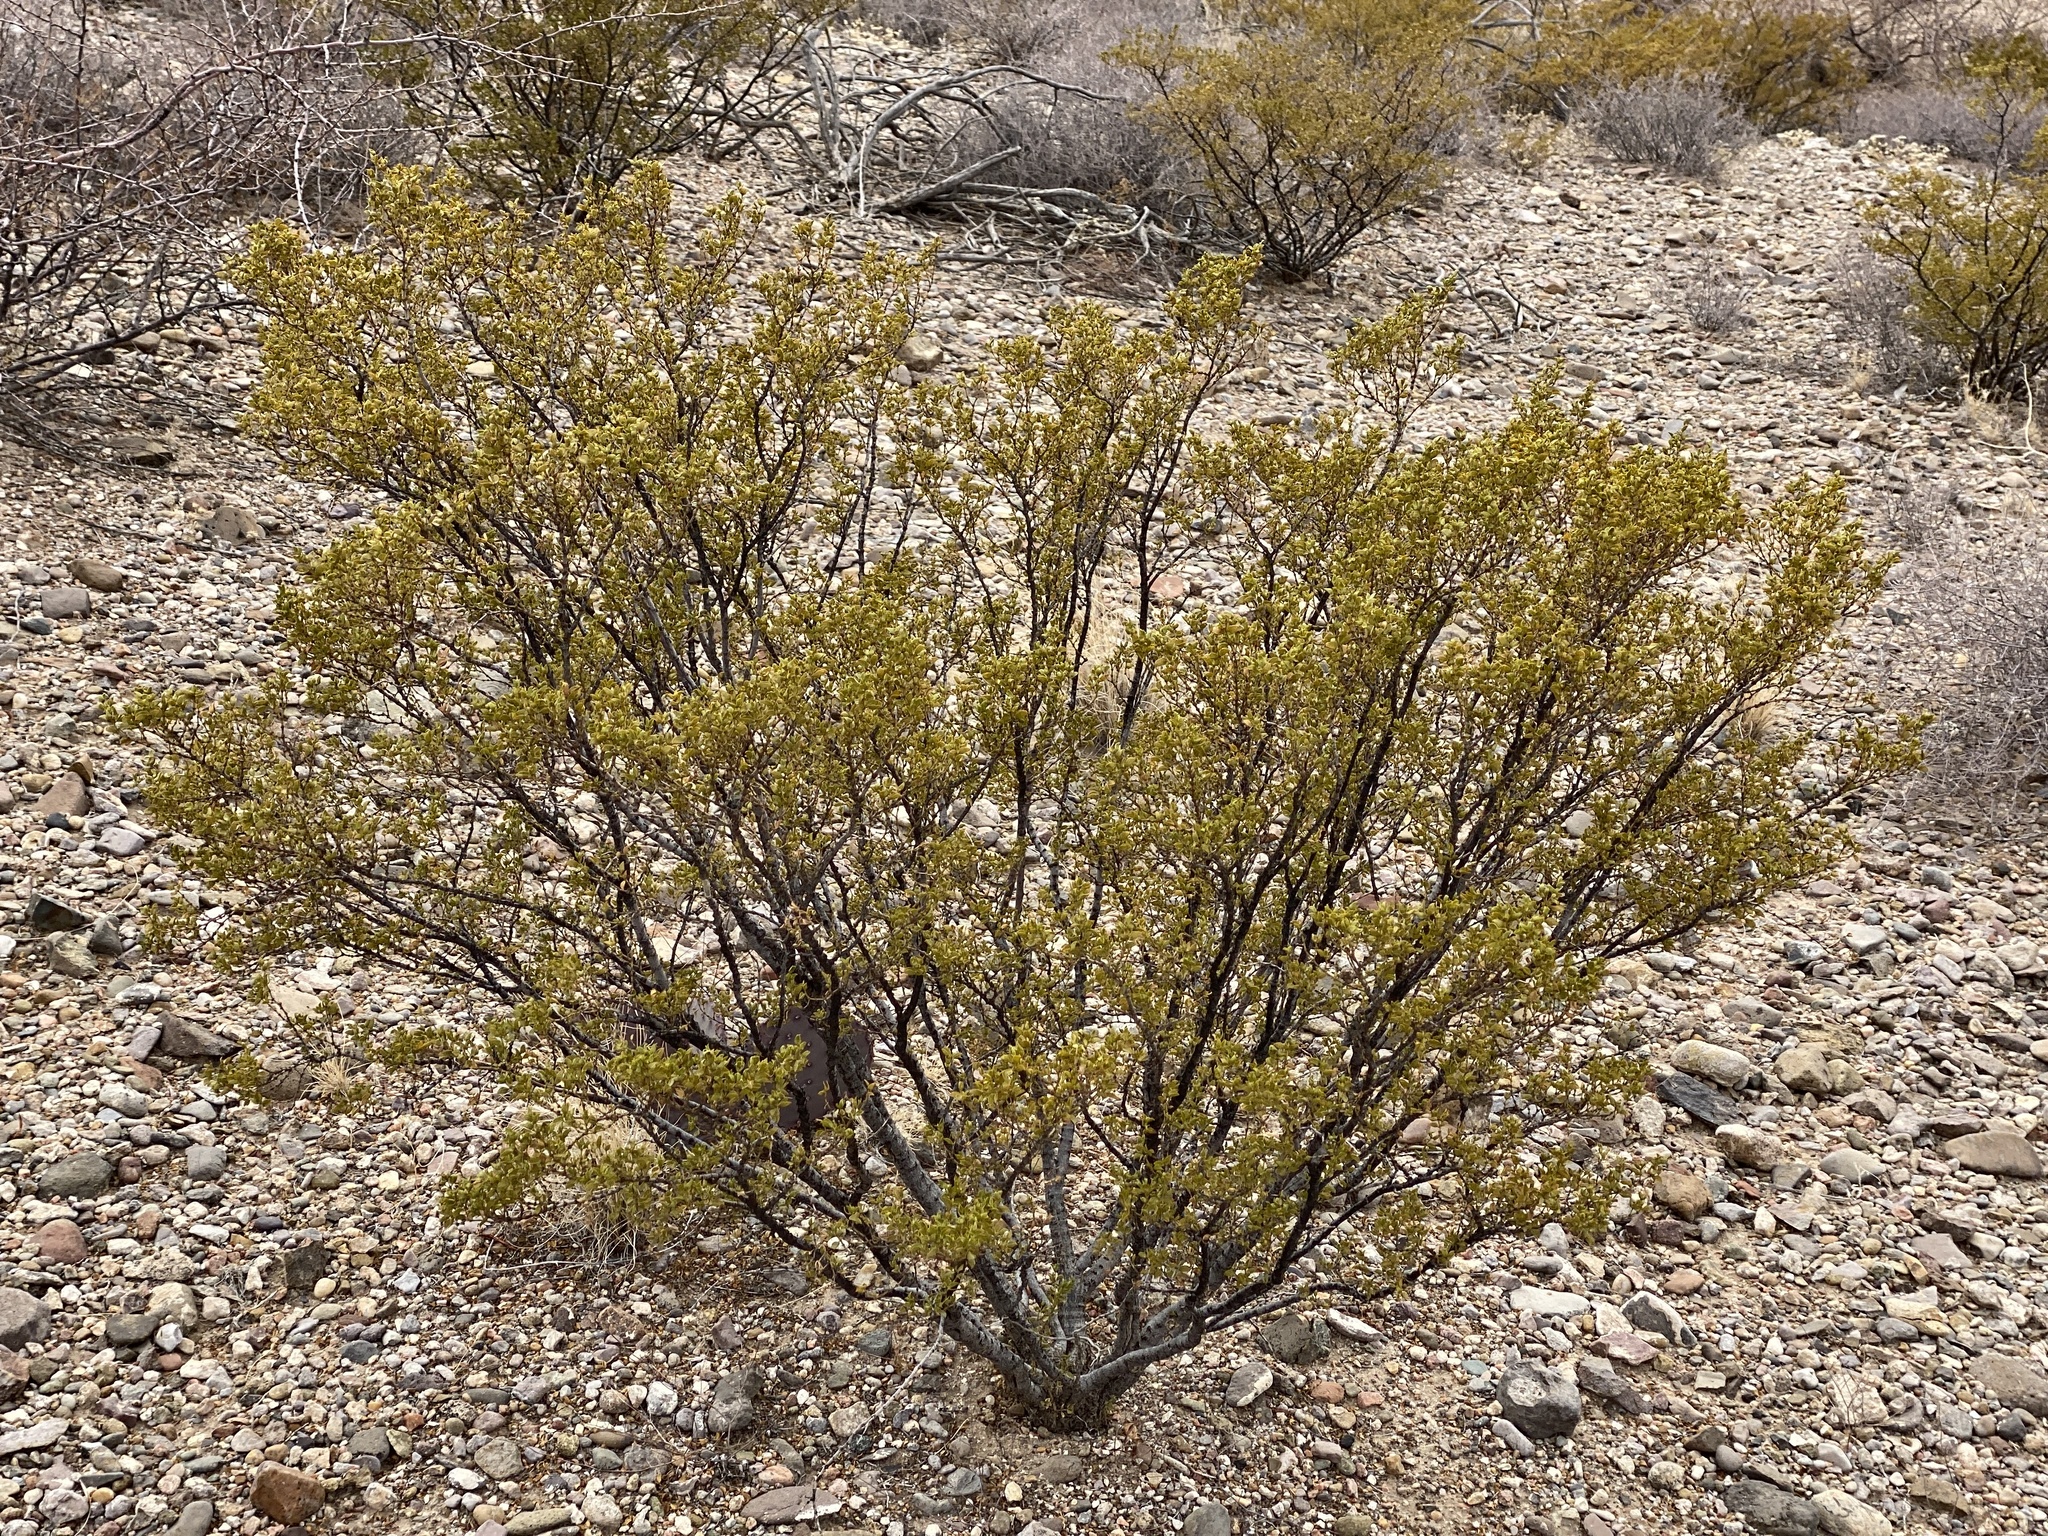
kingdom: Plantae
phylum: Tracheophyta
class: Magnoliopsida
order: Zygophyllales
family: Zygophyllaceae
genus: Larrea
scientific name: Larrea tridentata
